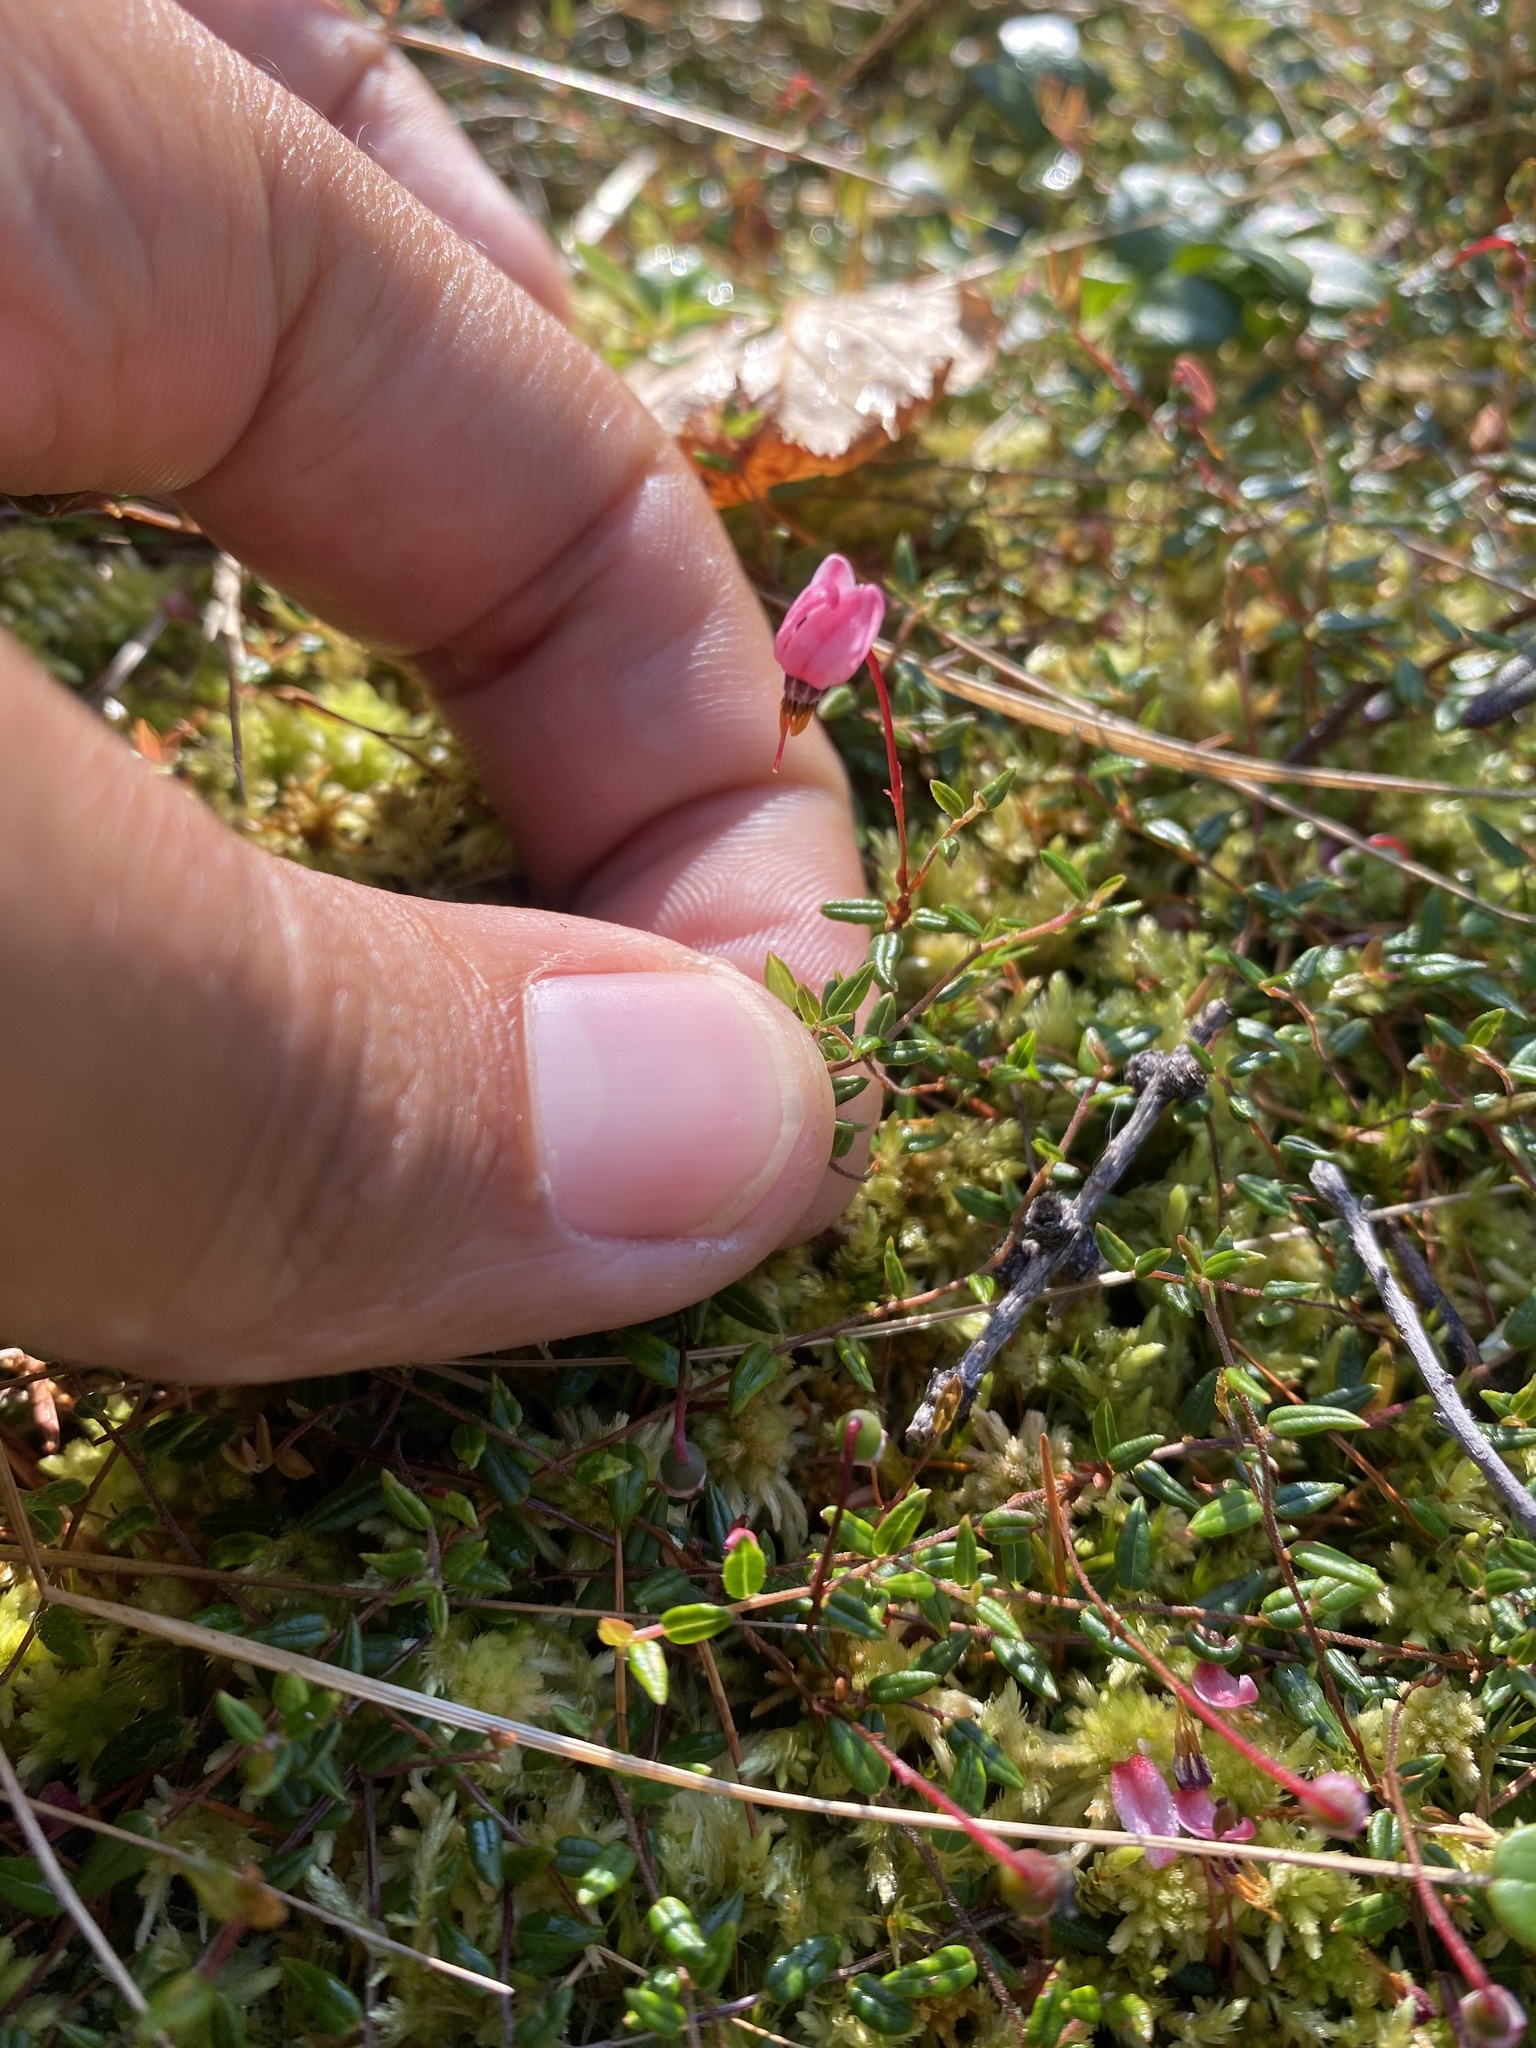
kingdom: Plantae
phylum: Tracheophyta
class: Magnoliopsida
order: Ericales
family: Ericaceae
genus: Vaccinium
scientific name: Vaccinium microcarpum
